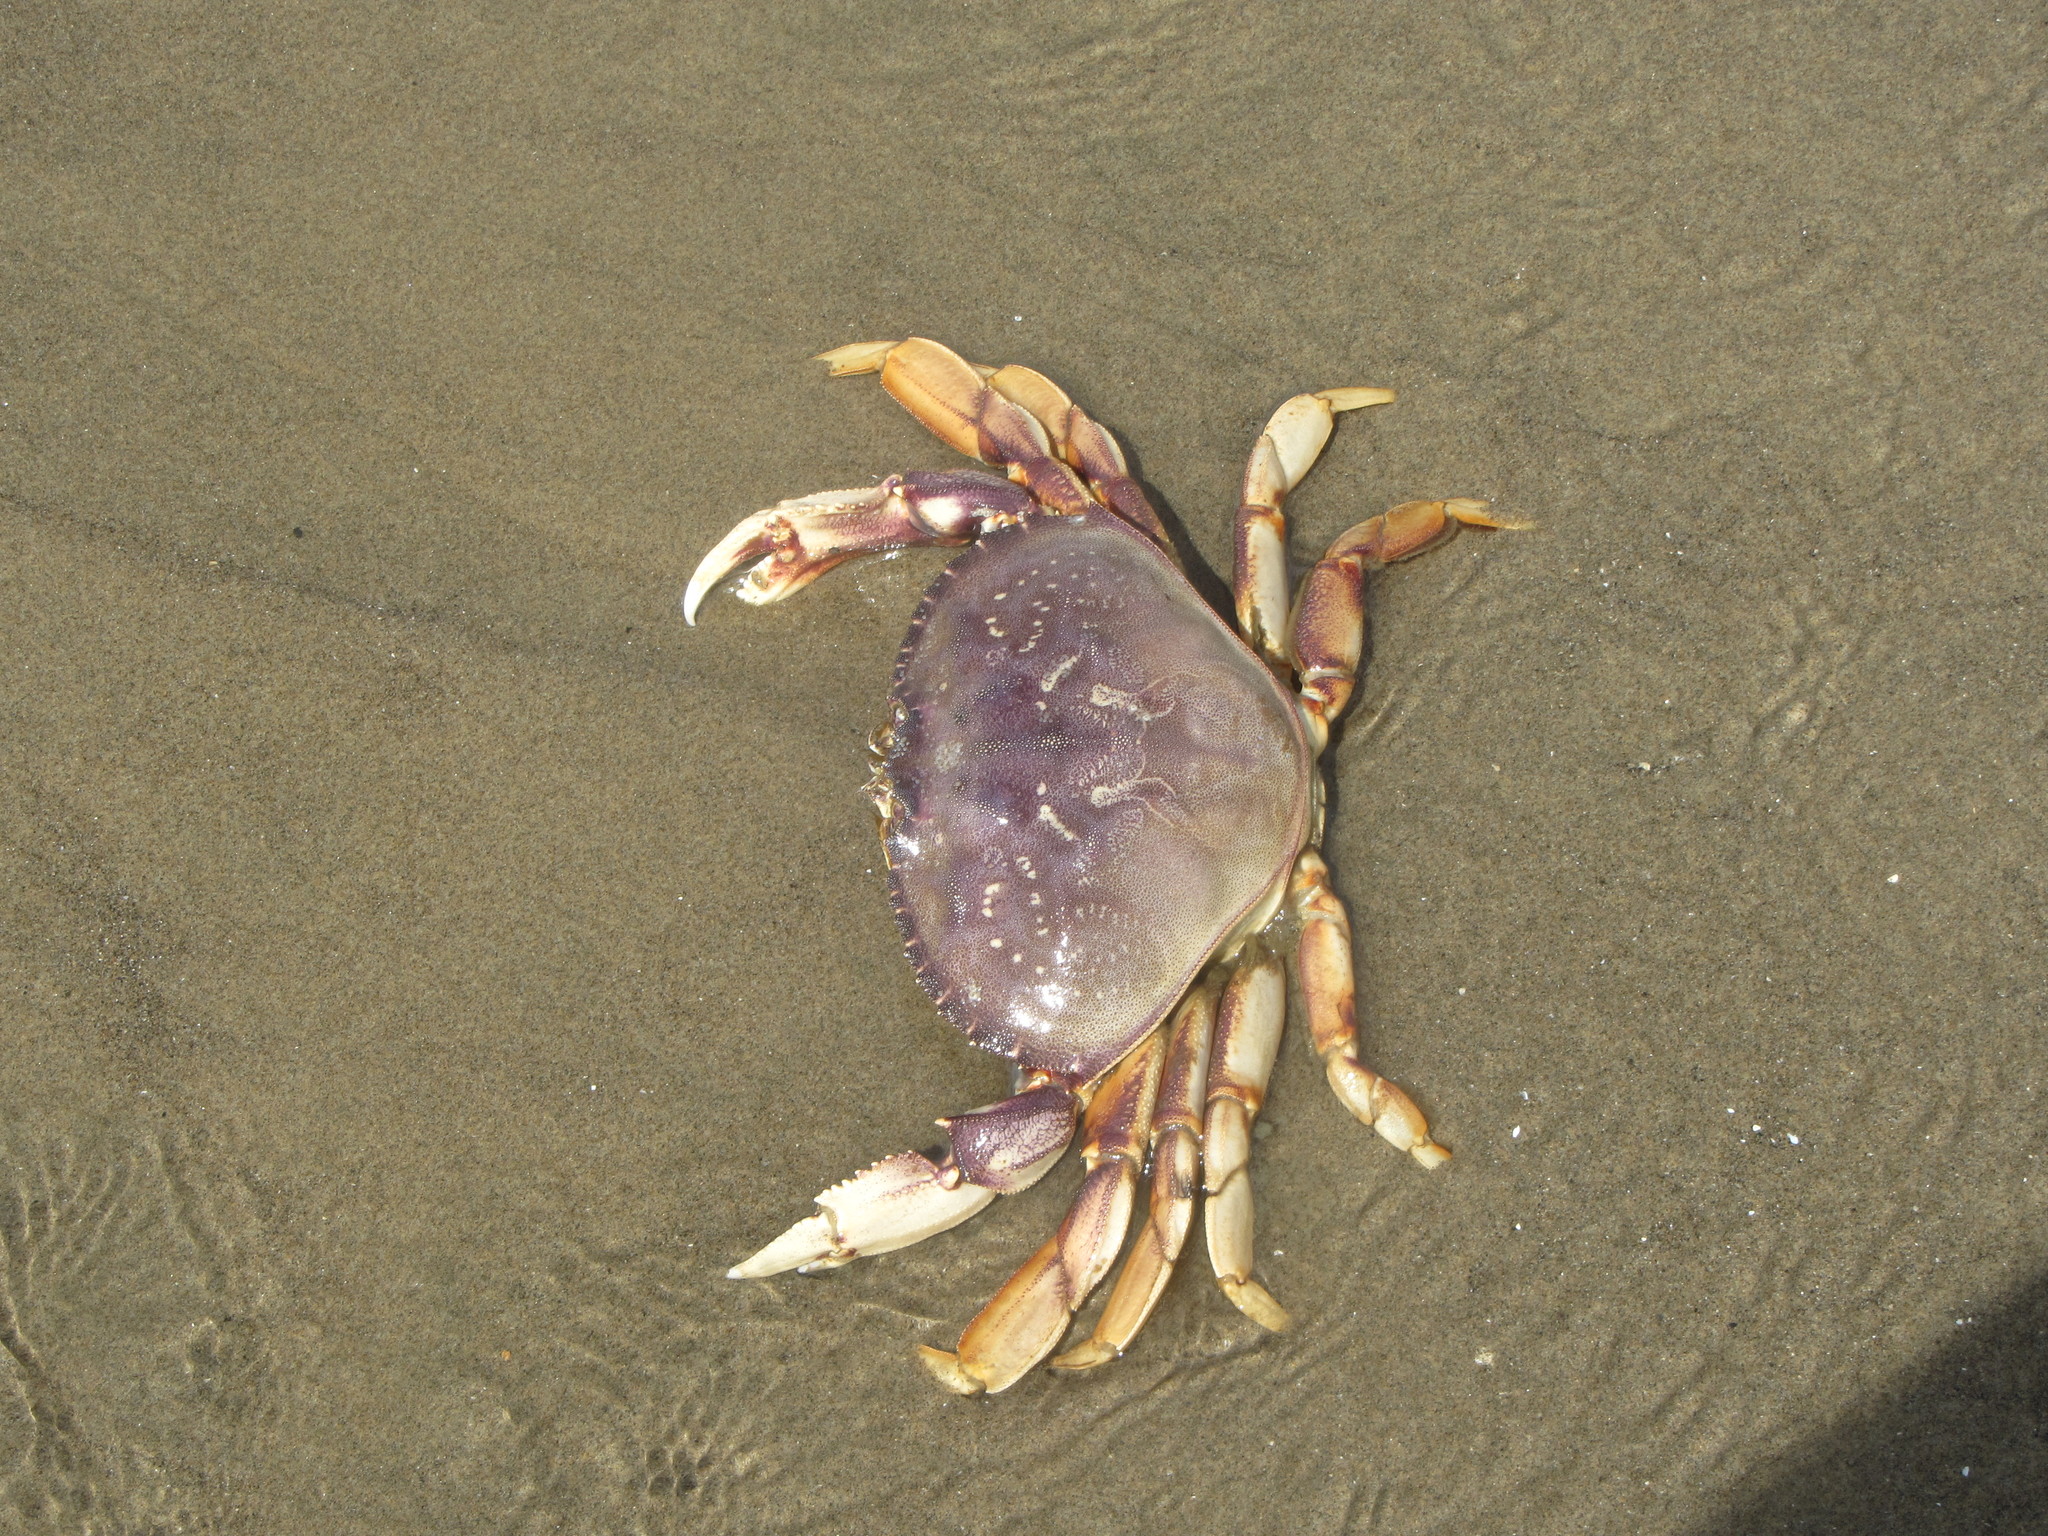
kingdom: Animalia
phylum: Arthropoda
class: Malacostraca
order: Decapoda
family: Cancridae
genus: Metacarcinus
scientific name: Metacarcinus magister
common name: Californian crab
